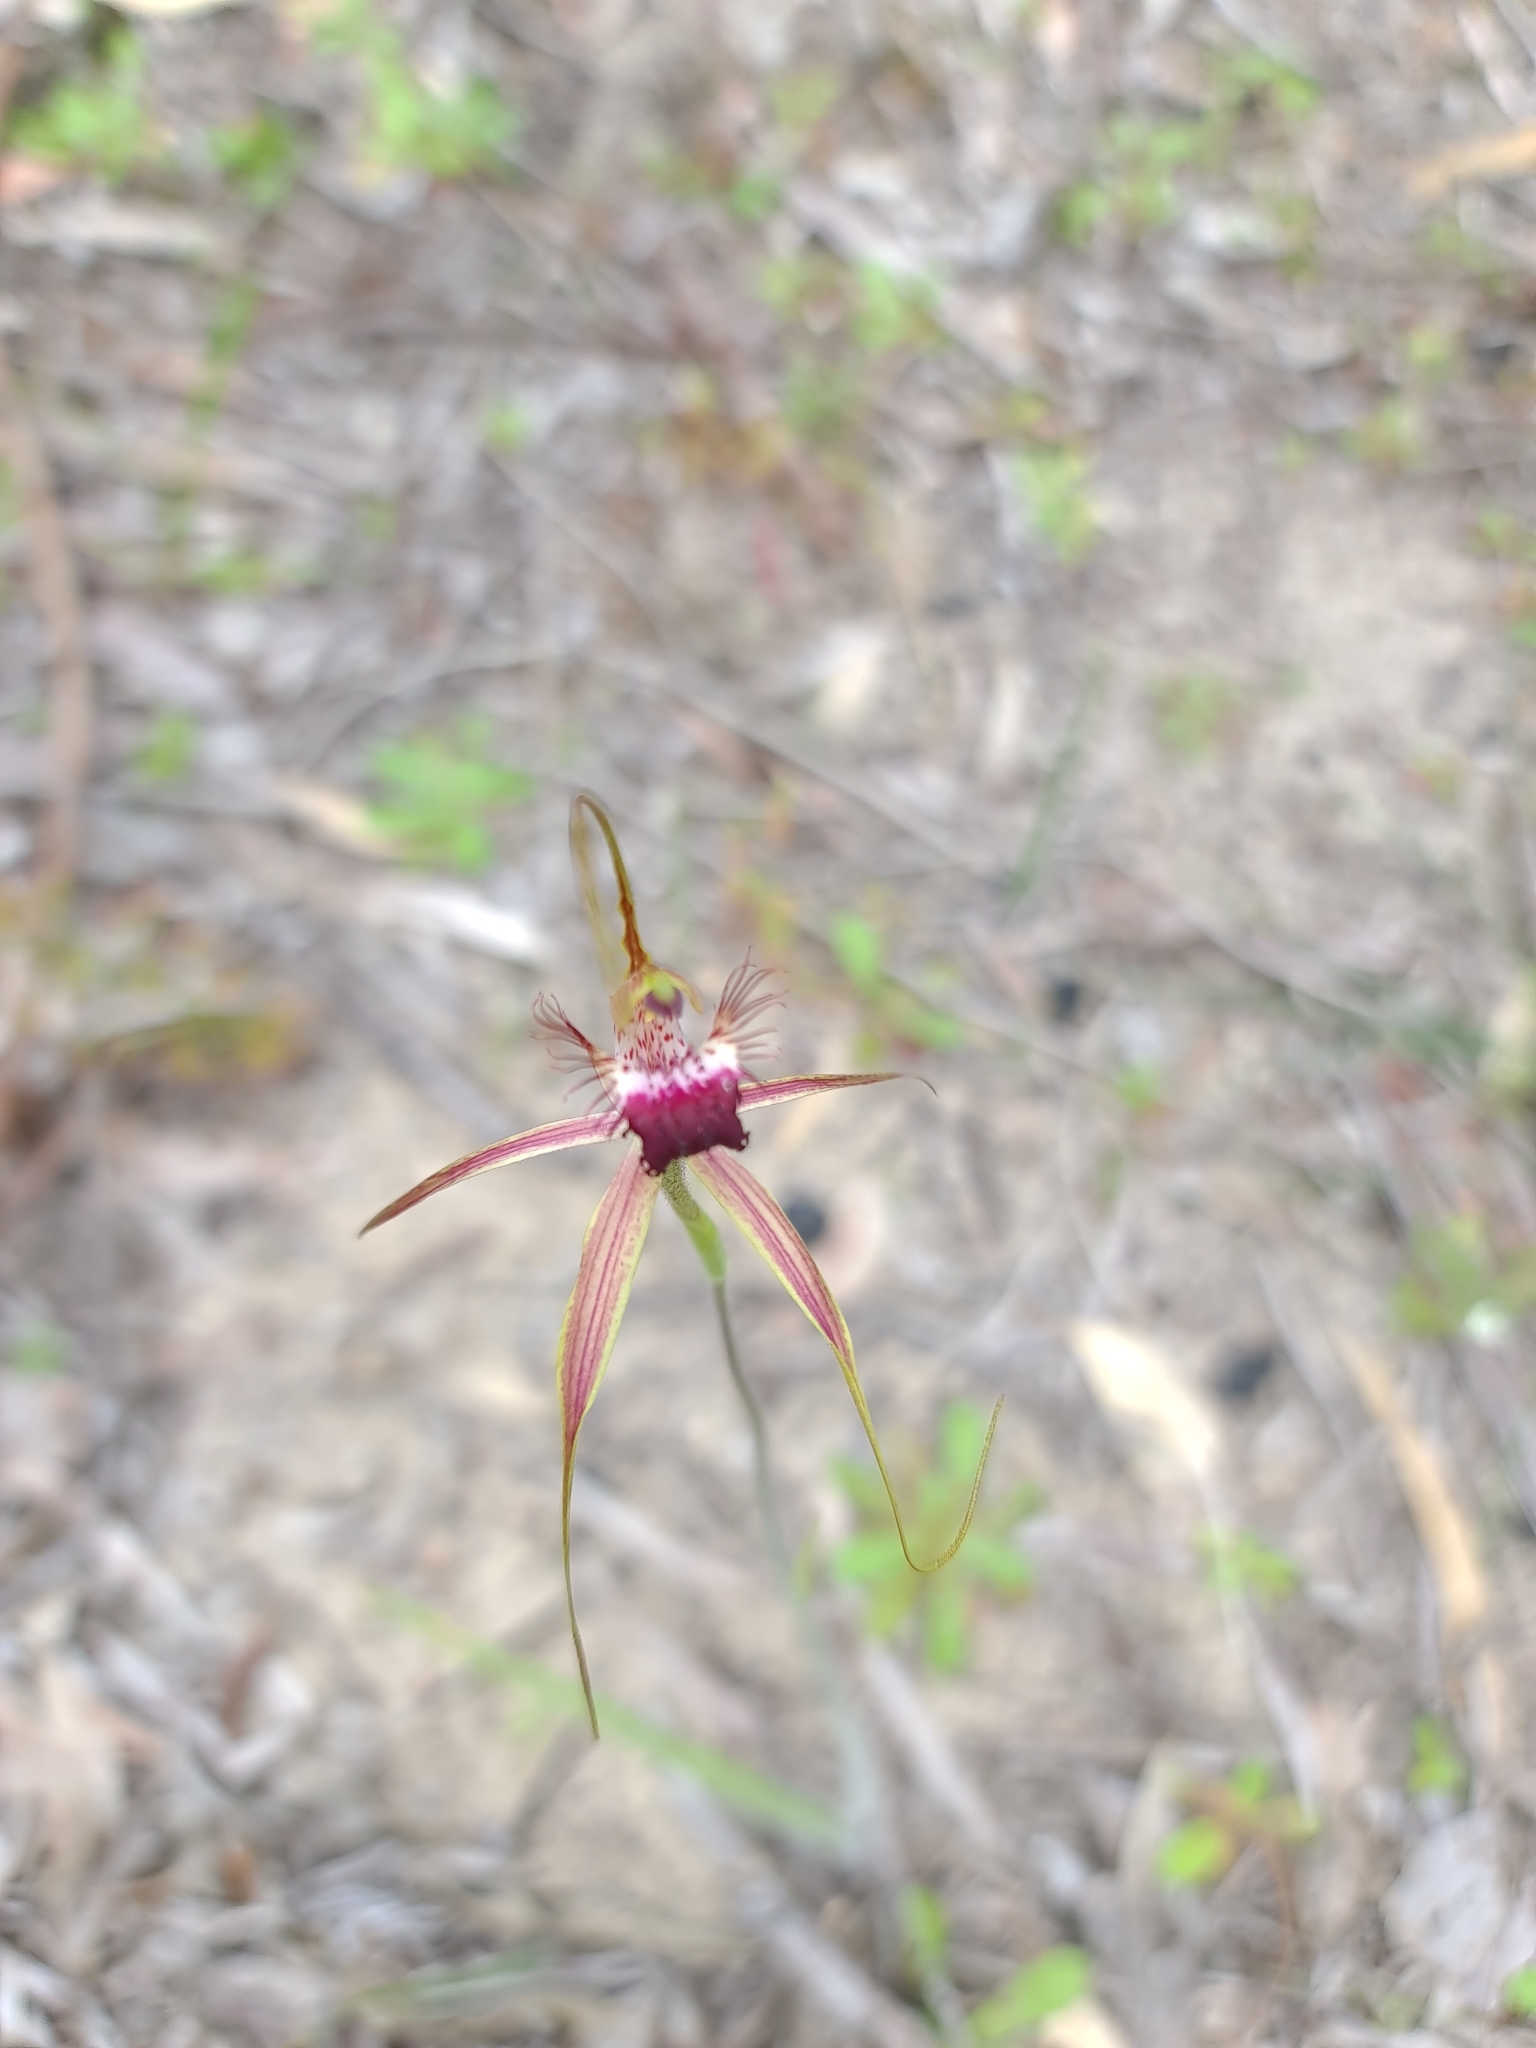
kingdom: Plantae
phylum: Tracheophyta
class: Liliopsida
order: Asparagales
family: Orchidaceae
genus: Caladenia
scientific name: Caladenia georgei
